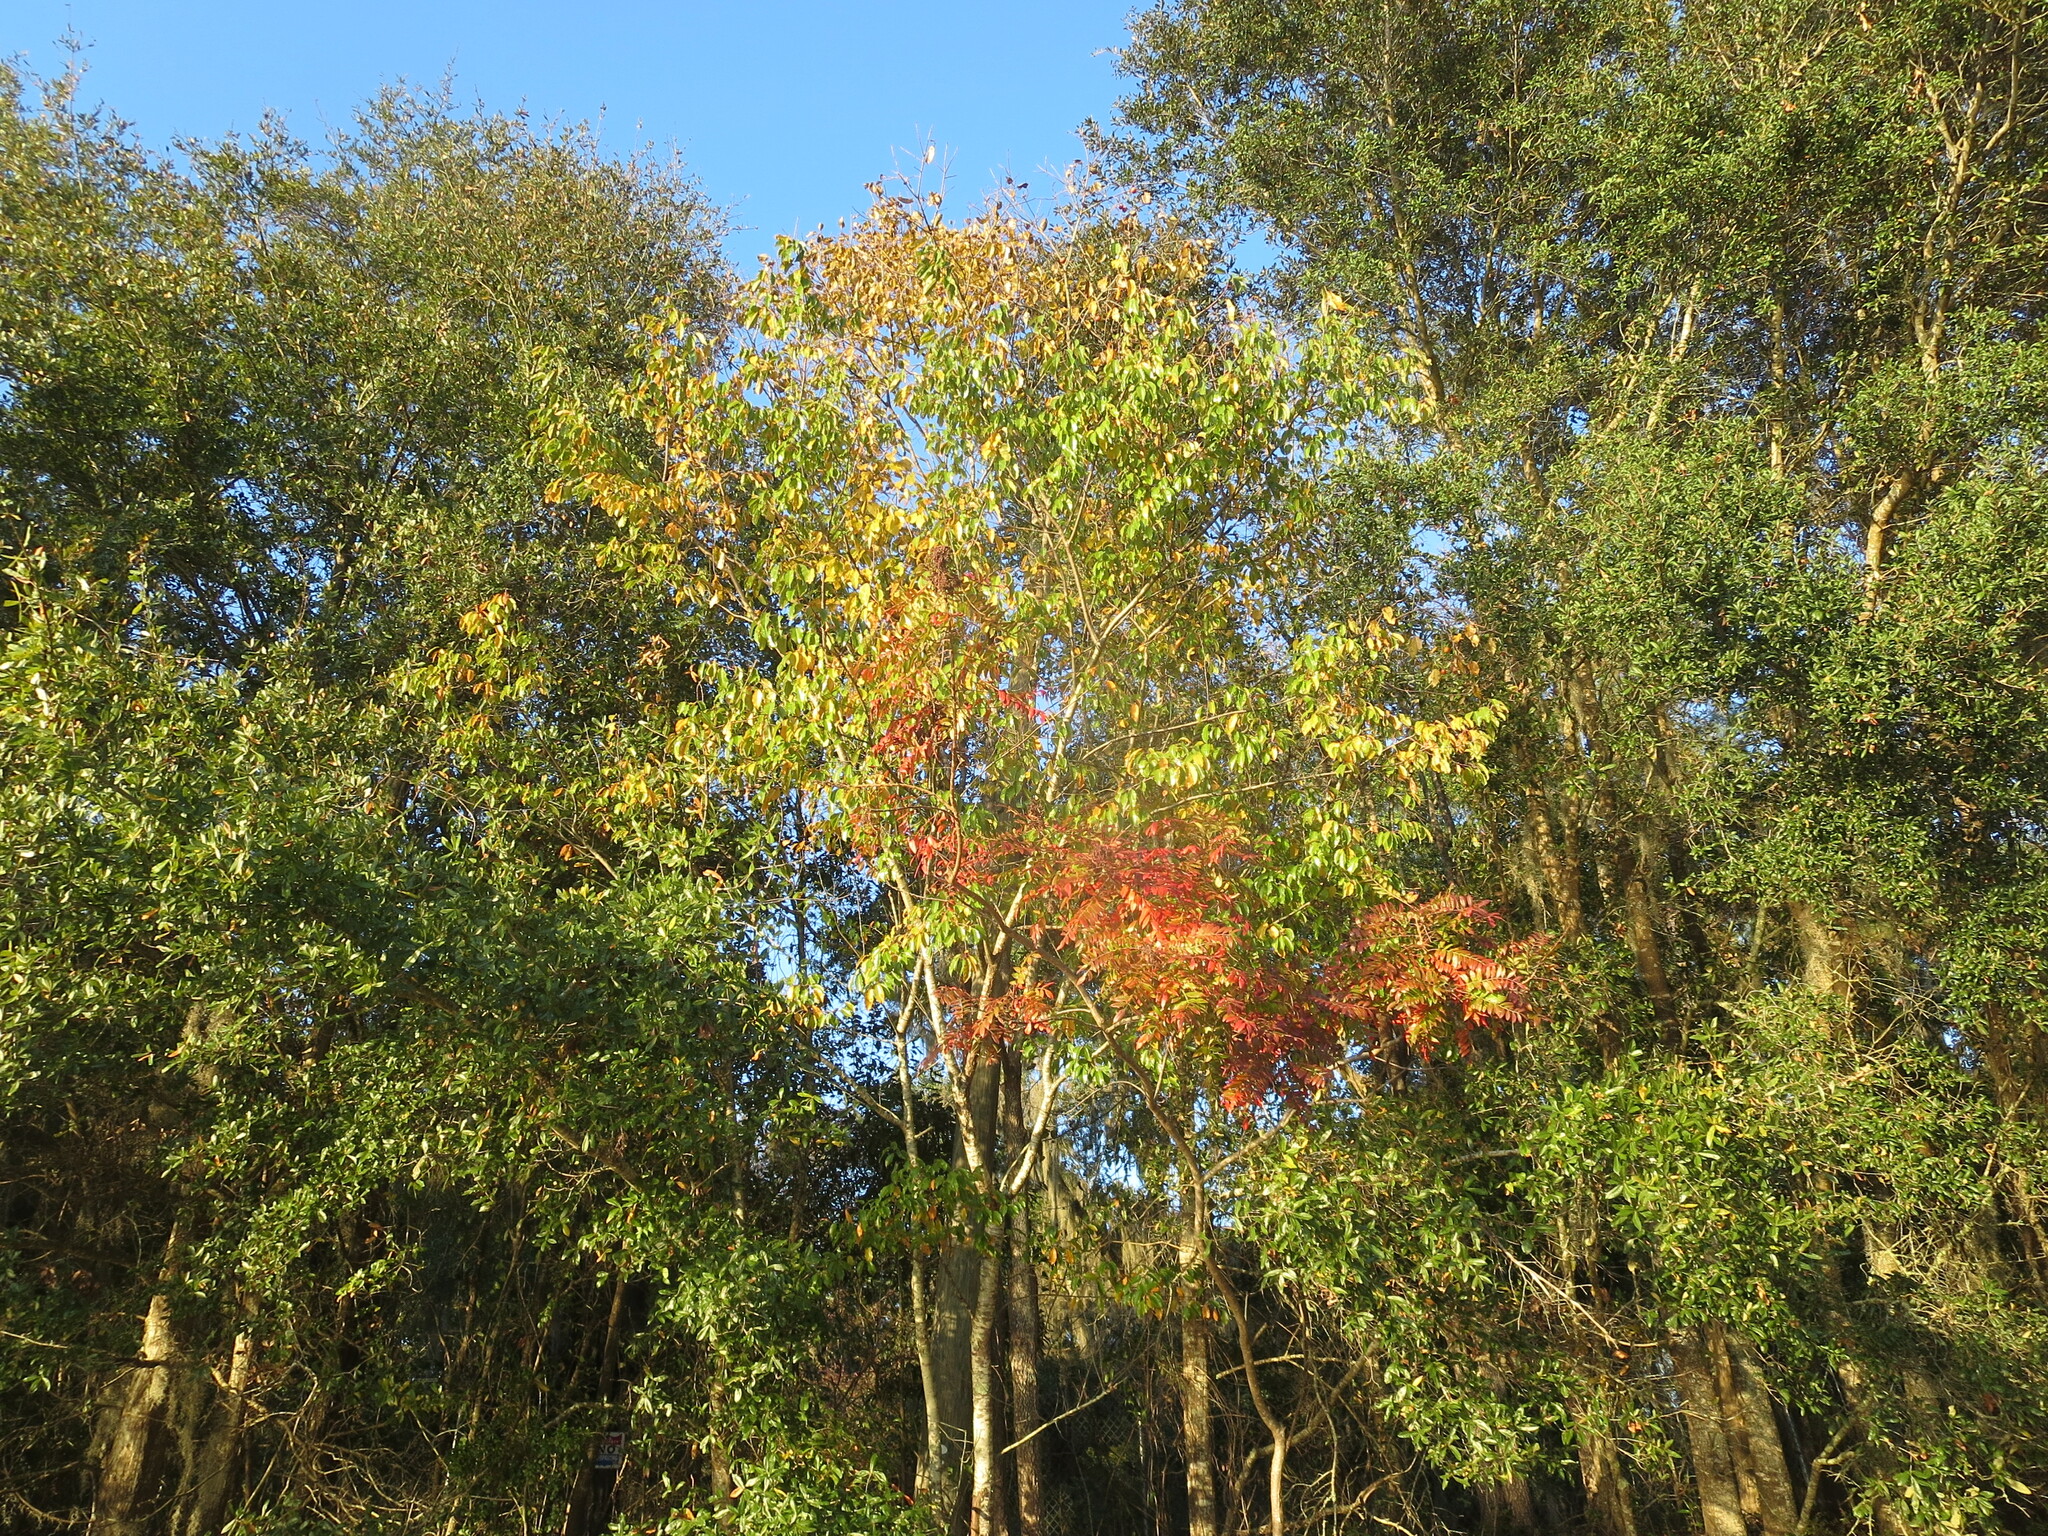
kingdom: Plantae
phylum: Tracheophyta
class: Magnoliopsida
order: Ericales
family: Ebenaceae
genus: Diospyros
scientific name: Diospyros virginiana
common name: Persimmon
